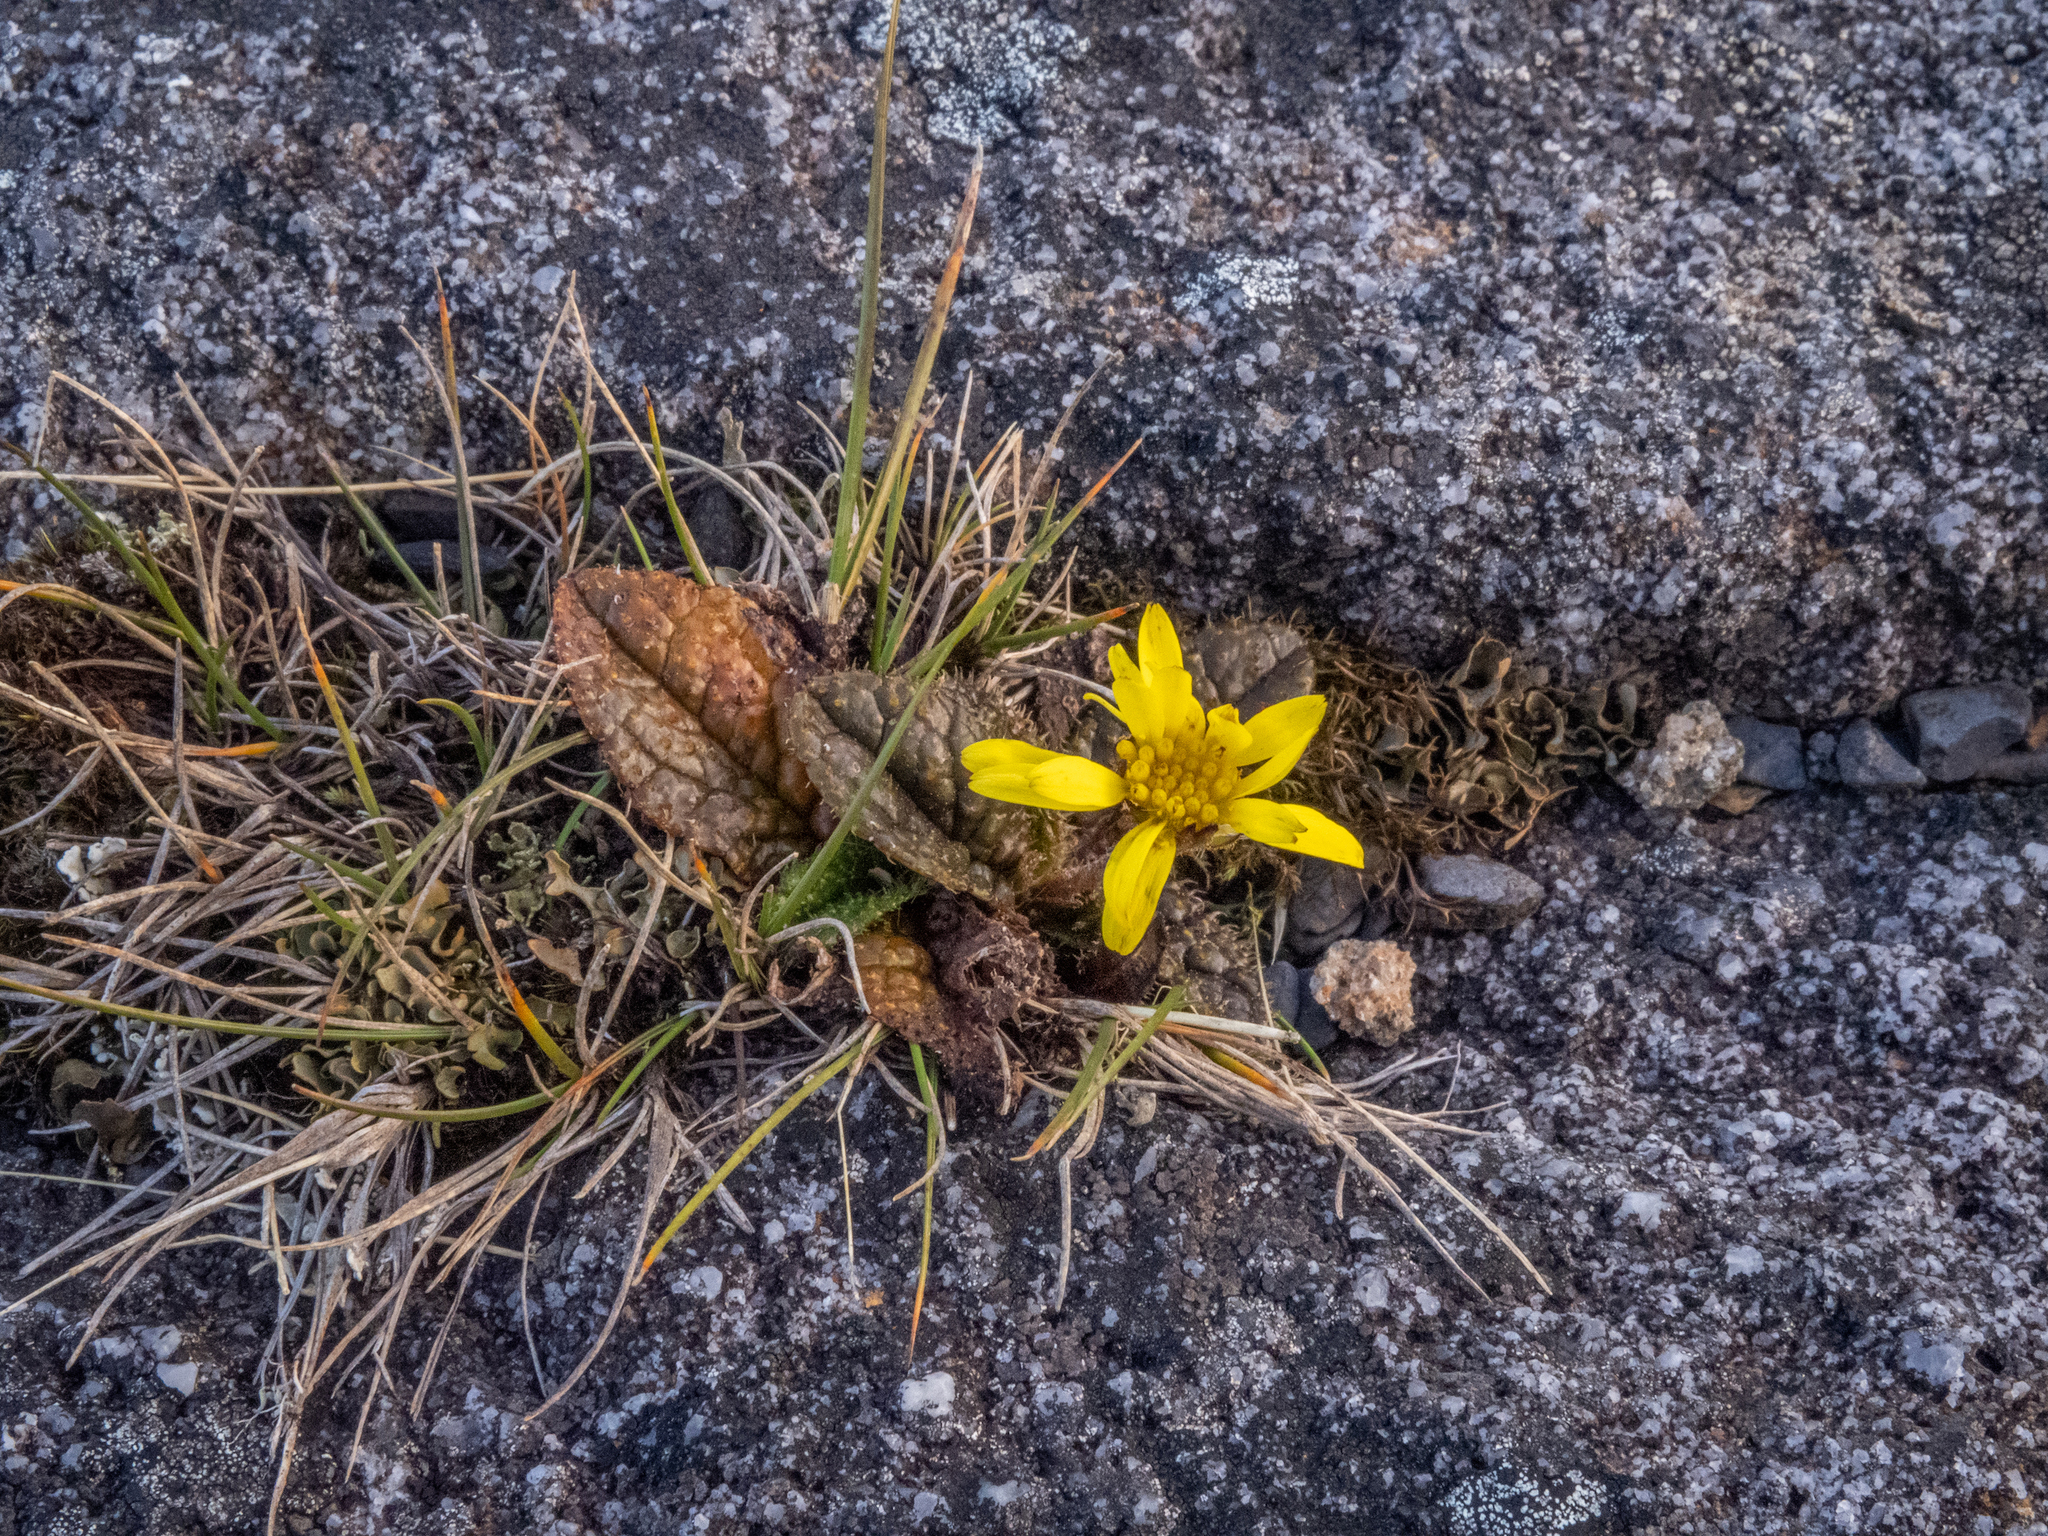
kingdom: Plantae
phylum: Tracheophyta
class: Magnoliopsida
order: Asterales
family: Asteraceae
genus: Brachyglottis
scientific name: Brachyglottis bellidioides
